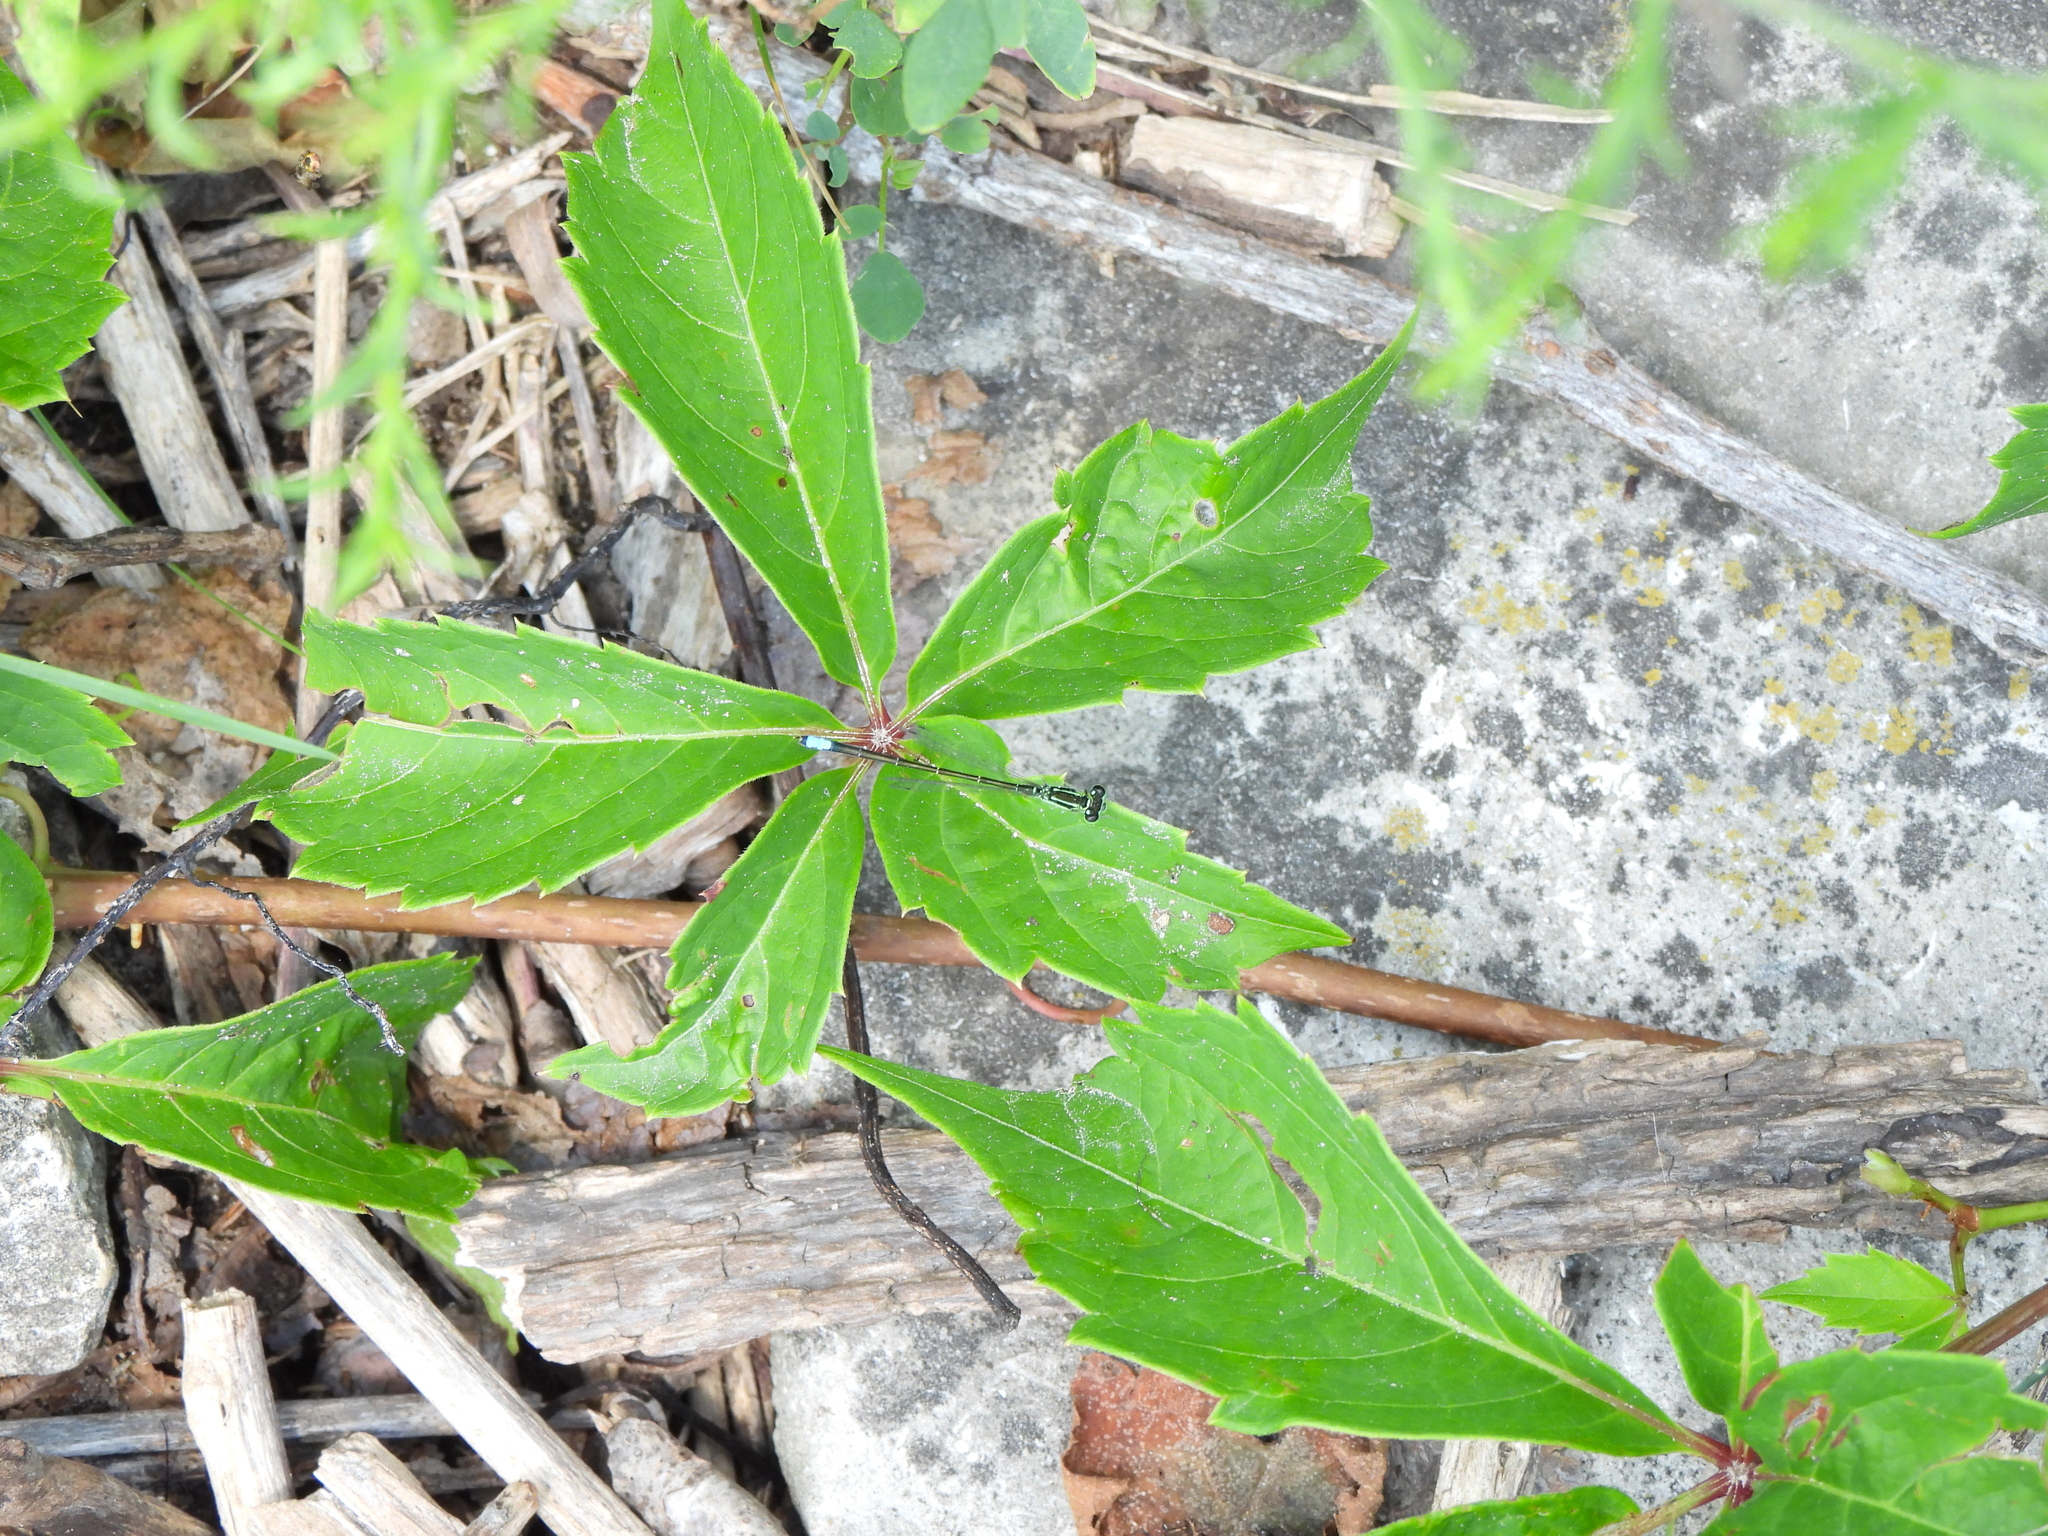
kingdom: Animalia
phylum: Arthropoda
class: Insecta
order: Odonata
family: Coenagrionidae
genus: Ischnura
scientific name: Ischnura verticalis
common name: Eastern forktail
